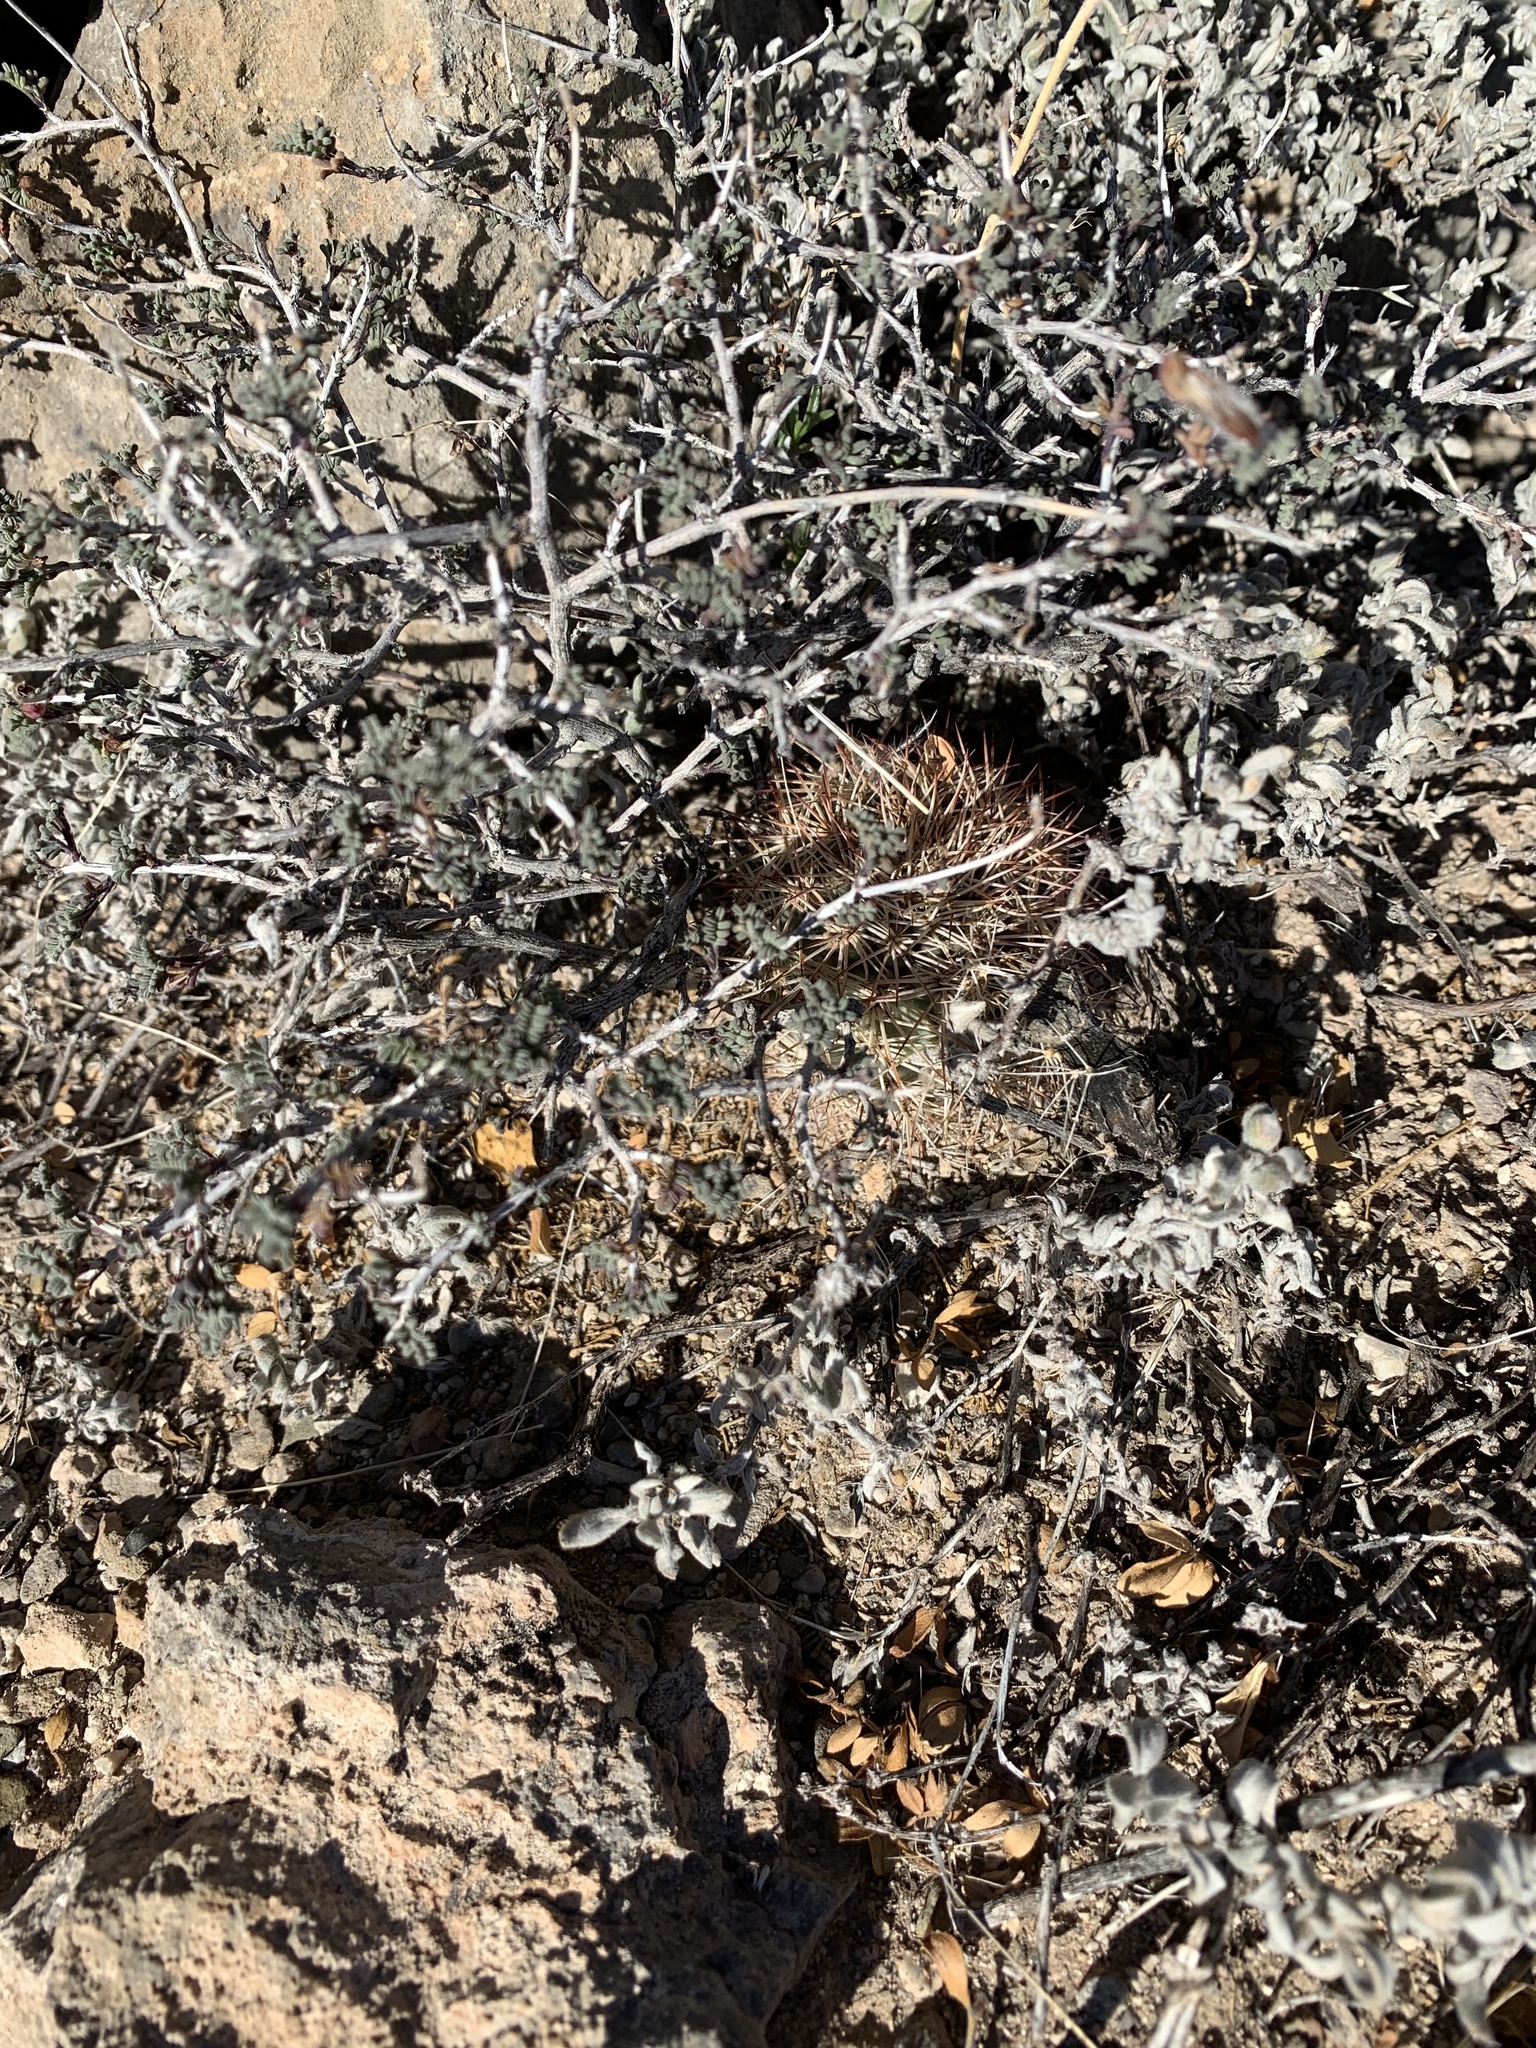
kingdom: Plantae
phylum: Tracheophyta
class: Magnoliopsida
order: Caryophyllales
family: Cactaceae
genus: Echinocereus
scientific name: Echinocereus dasyacanthus
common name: Spiny hedgehog cactus
